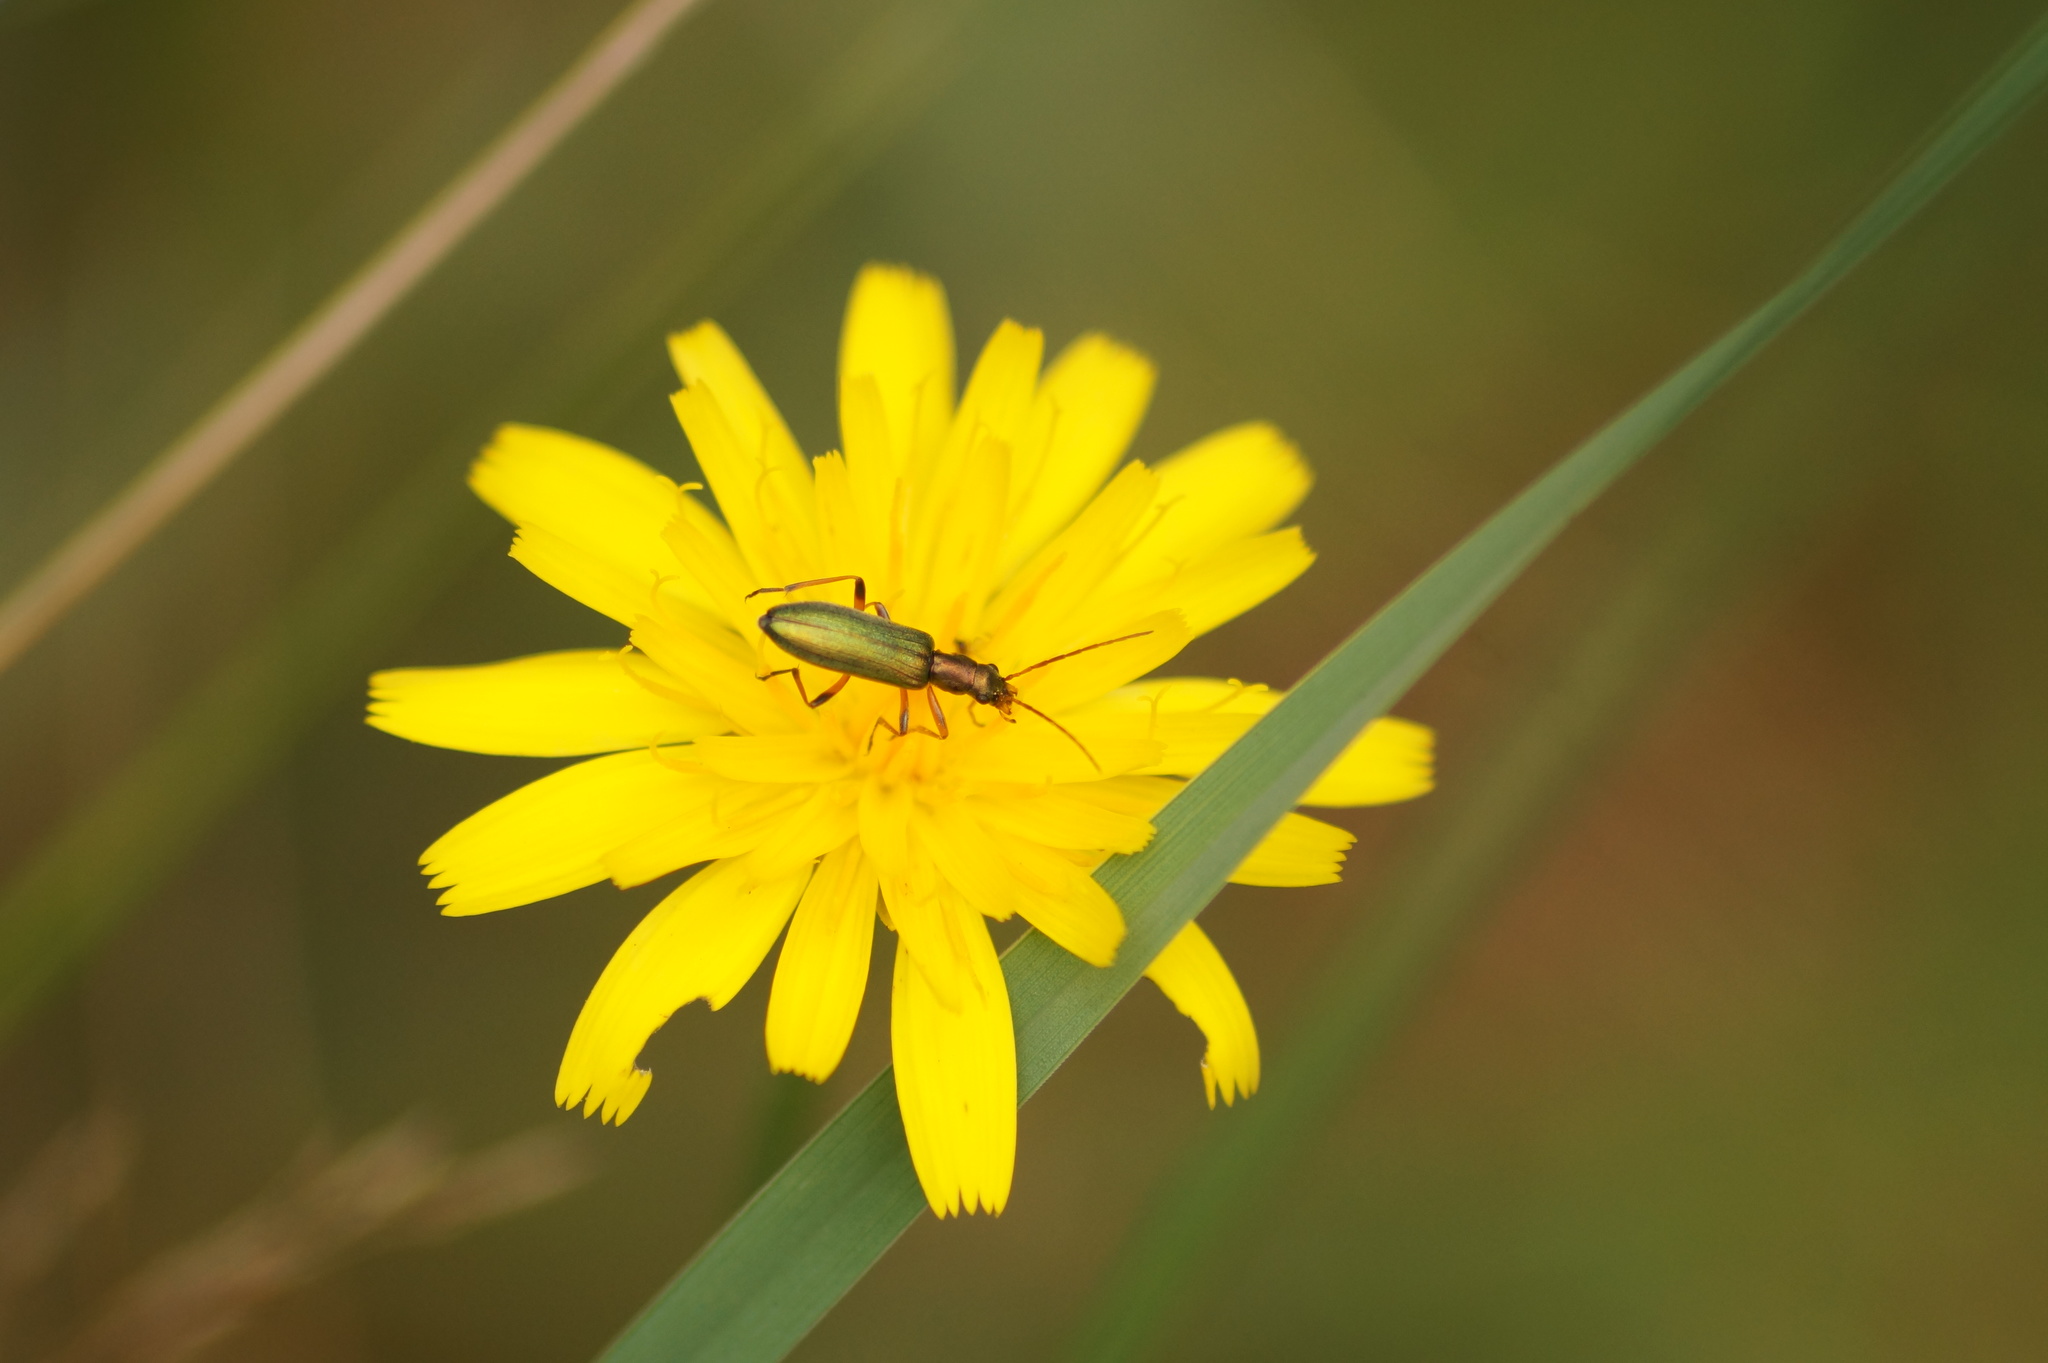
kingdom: Animalia
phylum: Arthropoda
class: Insecta
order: Coleoptera
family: Oedemeridae
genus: Chrysanthia
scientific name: Chrysanthia geniculata
